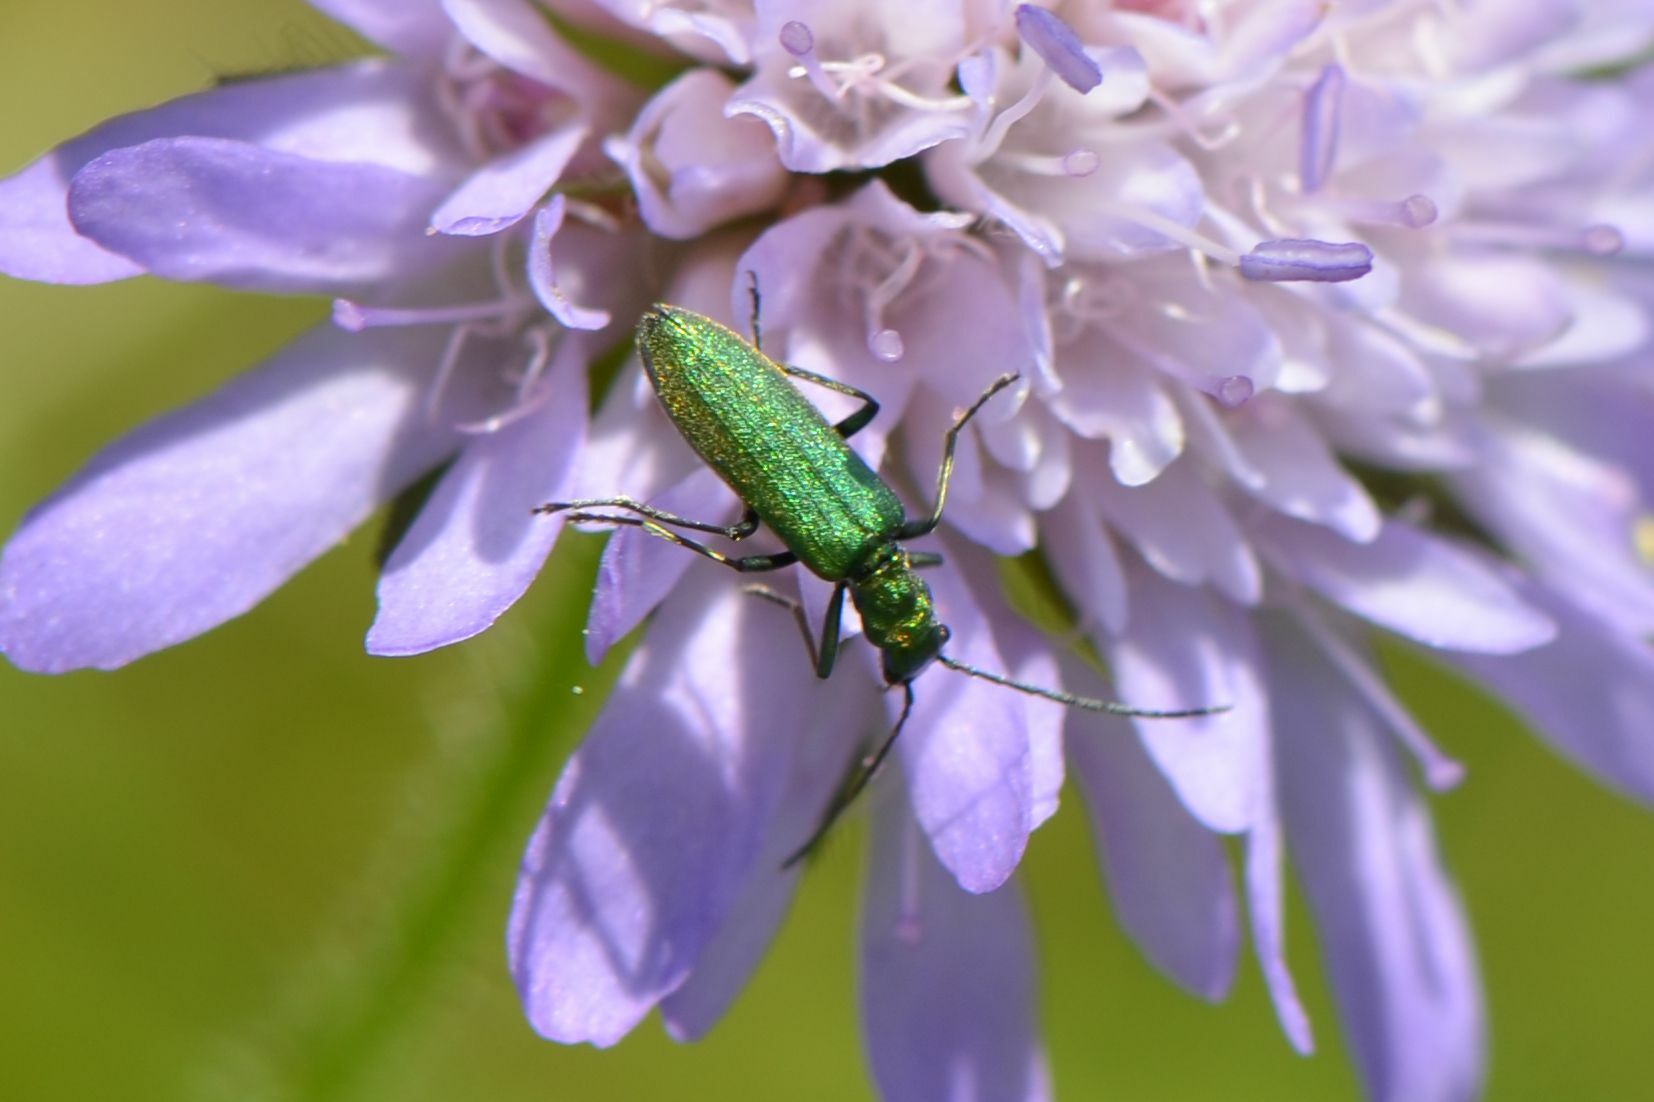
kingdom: Animalia
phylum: Arthropoda
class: Insecta
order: Coleoptera
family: Oedemeridae
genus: Chrysanthia
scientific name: Chrysanthia viridissima
